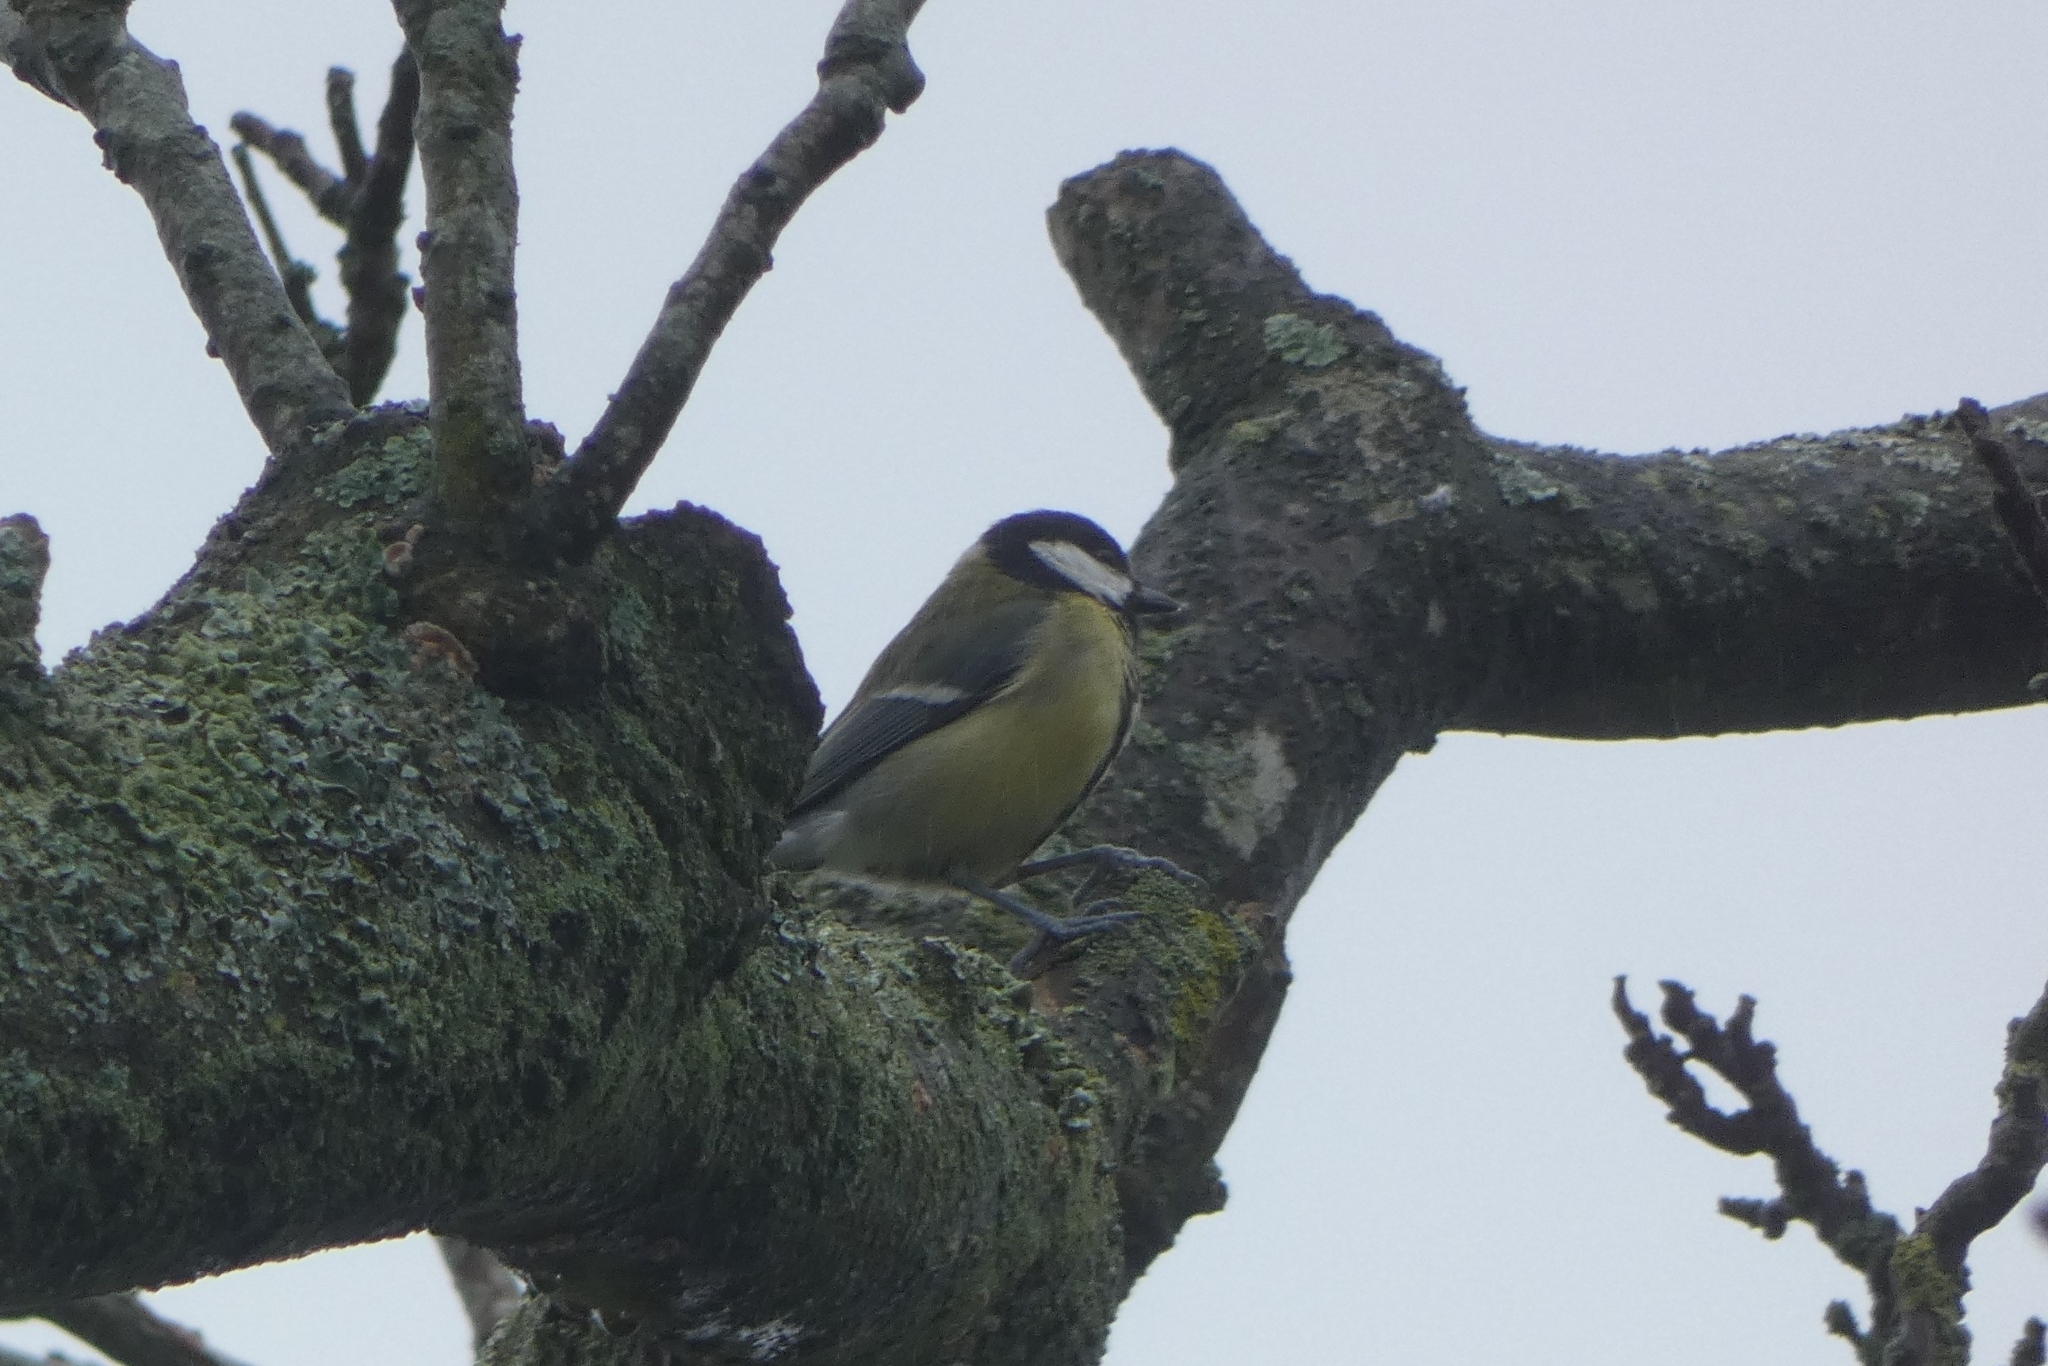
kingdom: Animalia
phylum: Chordata
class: Aves
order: Passeriformes
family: Paridae
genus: Parus
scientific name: Parus major
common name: Great tit
